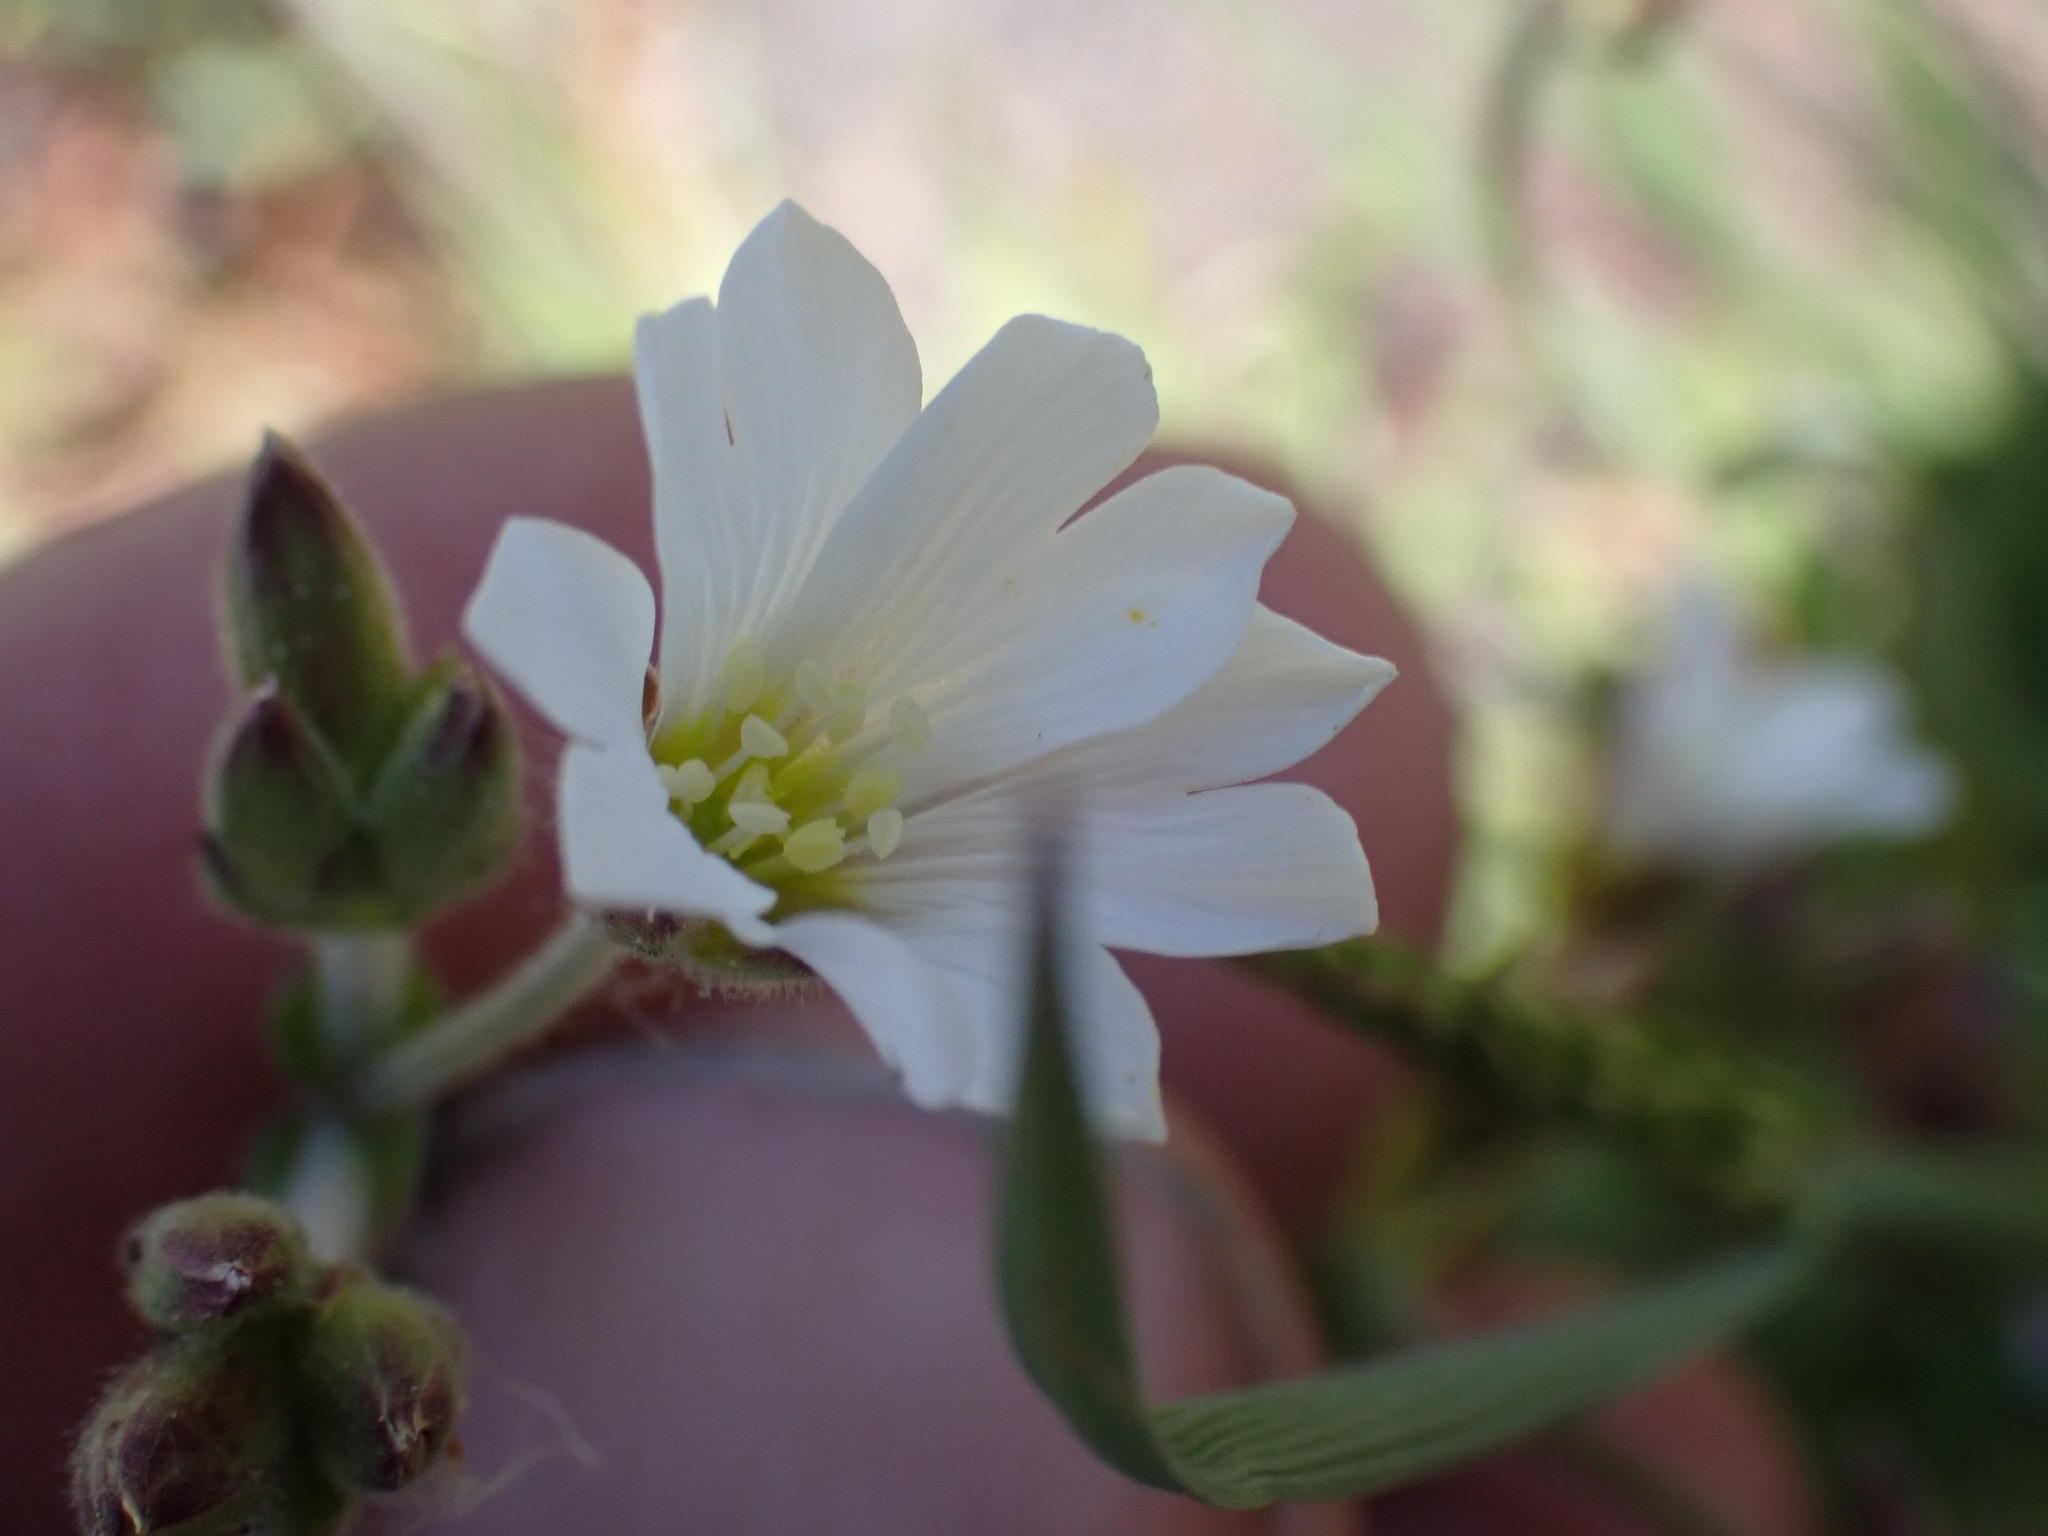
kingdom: Plantae
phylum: Tracheophyta
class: Magnoliopsida
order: Caryophyllales
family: Caryophyllaceae
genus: Cerastium
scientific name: Cerastium arvense
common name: Field mouse-ear
